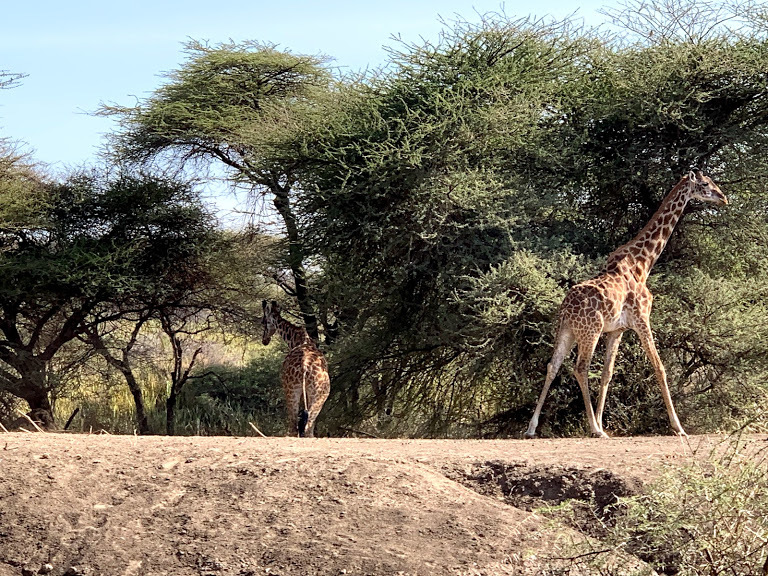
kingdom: Animalia
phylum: Chordata
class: Mammalia
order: Artiodactyla
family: Giraffidae
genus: Giraffa
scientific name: Giraffa tippelskirchi
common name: Masai giraffe
